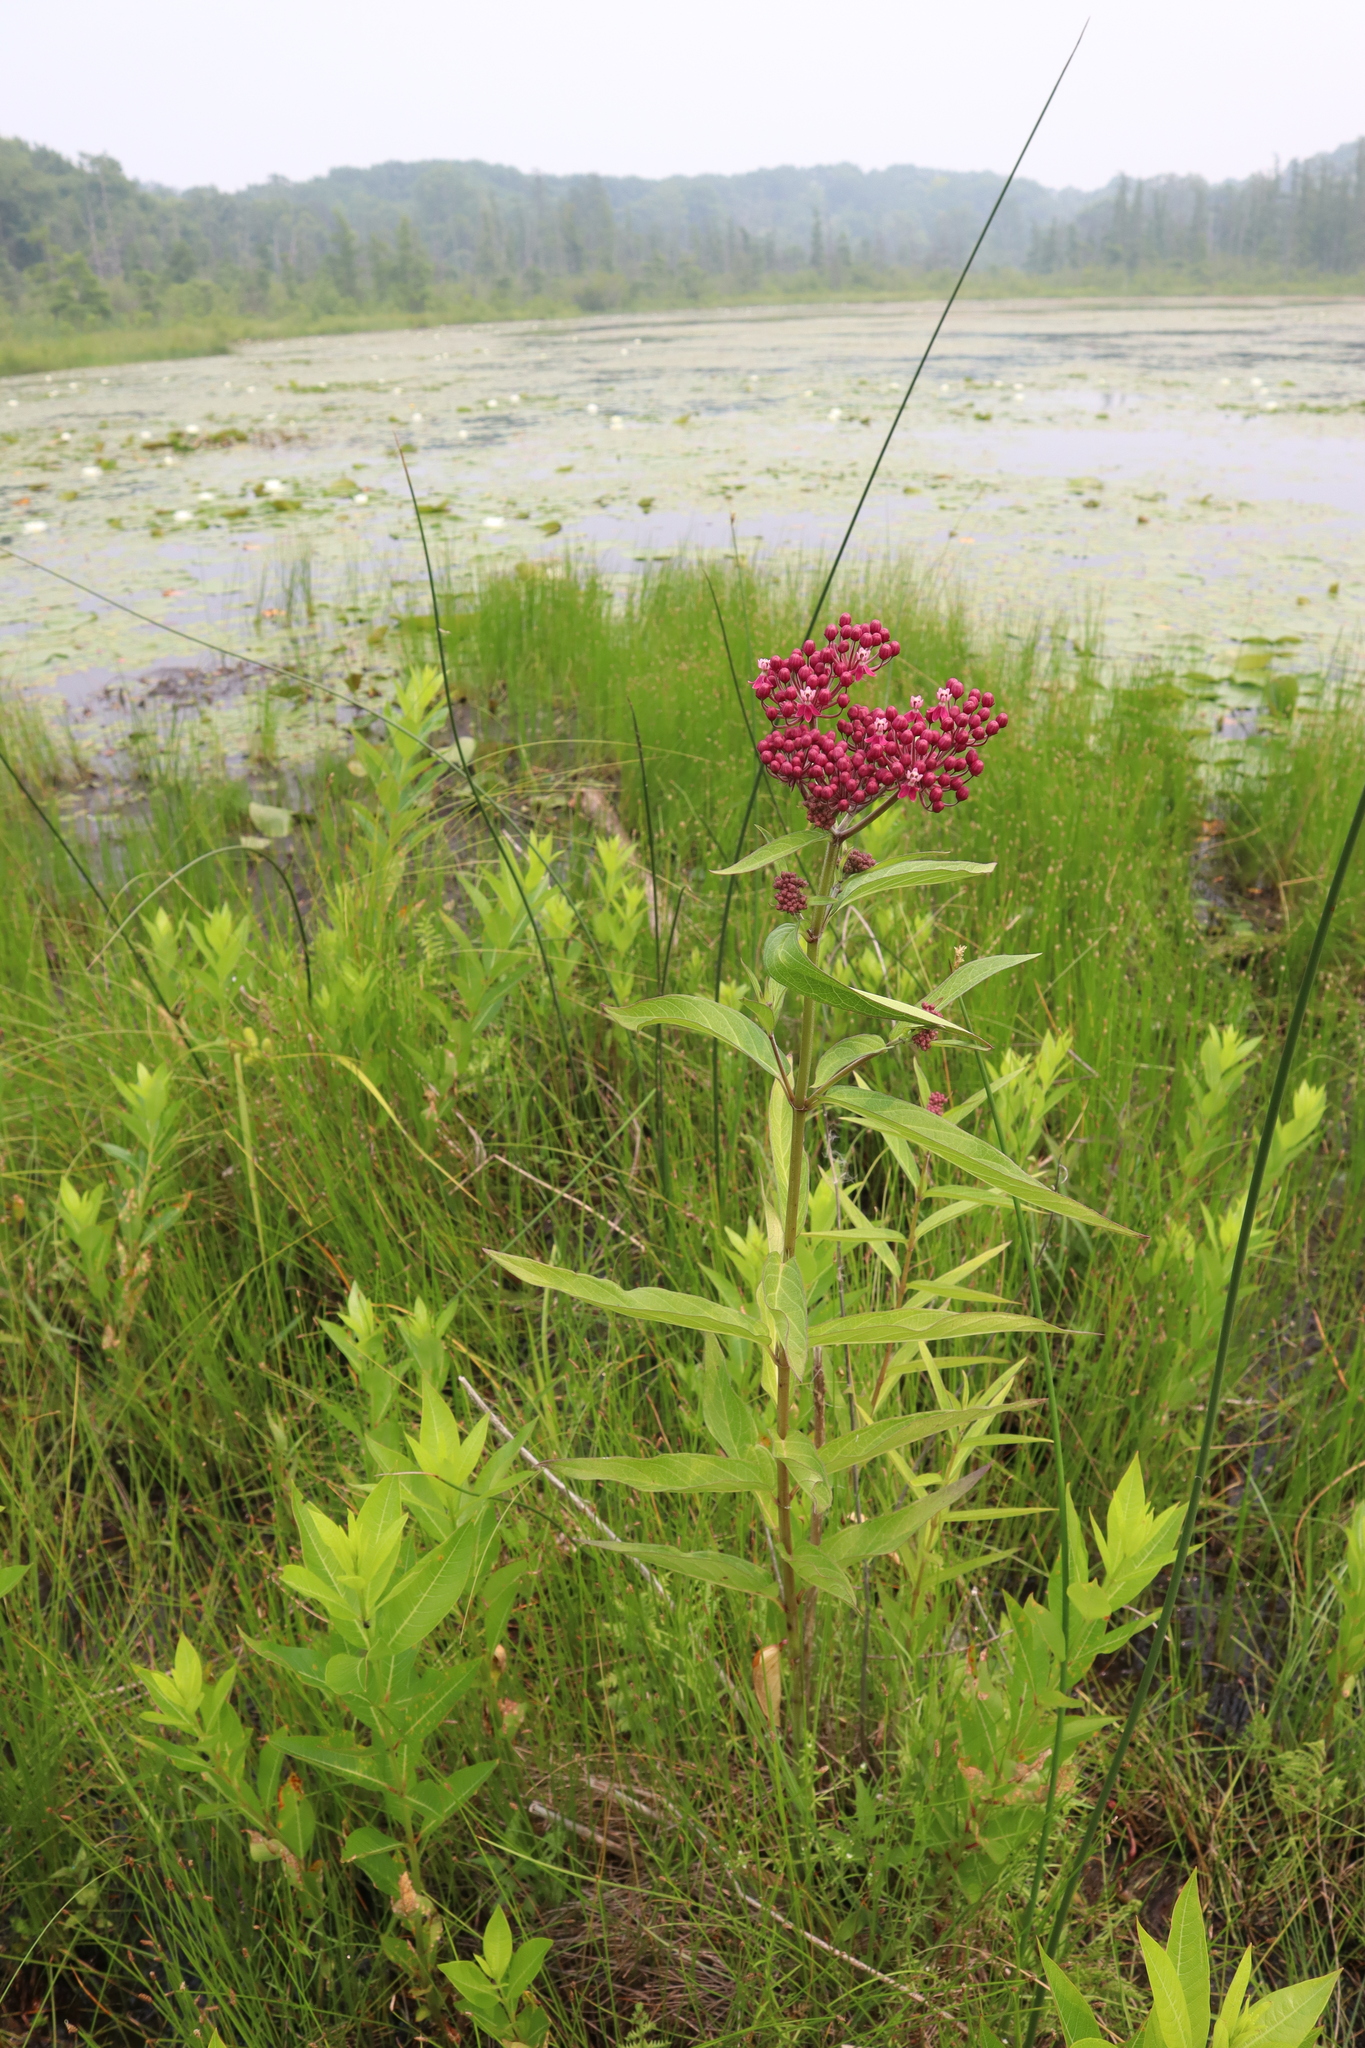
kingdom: Plantae
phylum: Tracheophyta
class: Magnoliopsida
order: Gentianales
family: Apocynaceae
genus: Asclepias
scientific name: Asclepias incarnata
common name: Swamp milkweed
